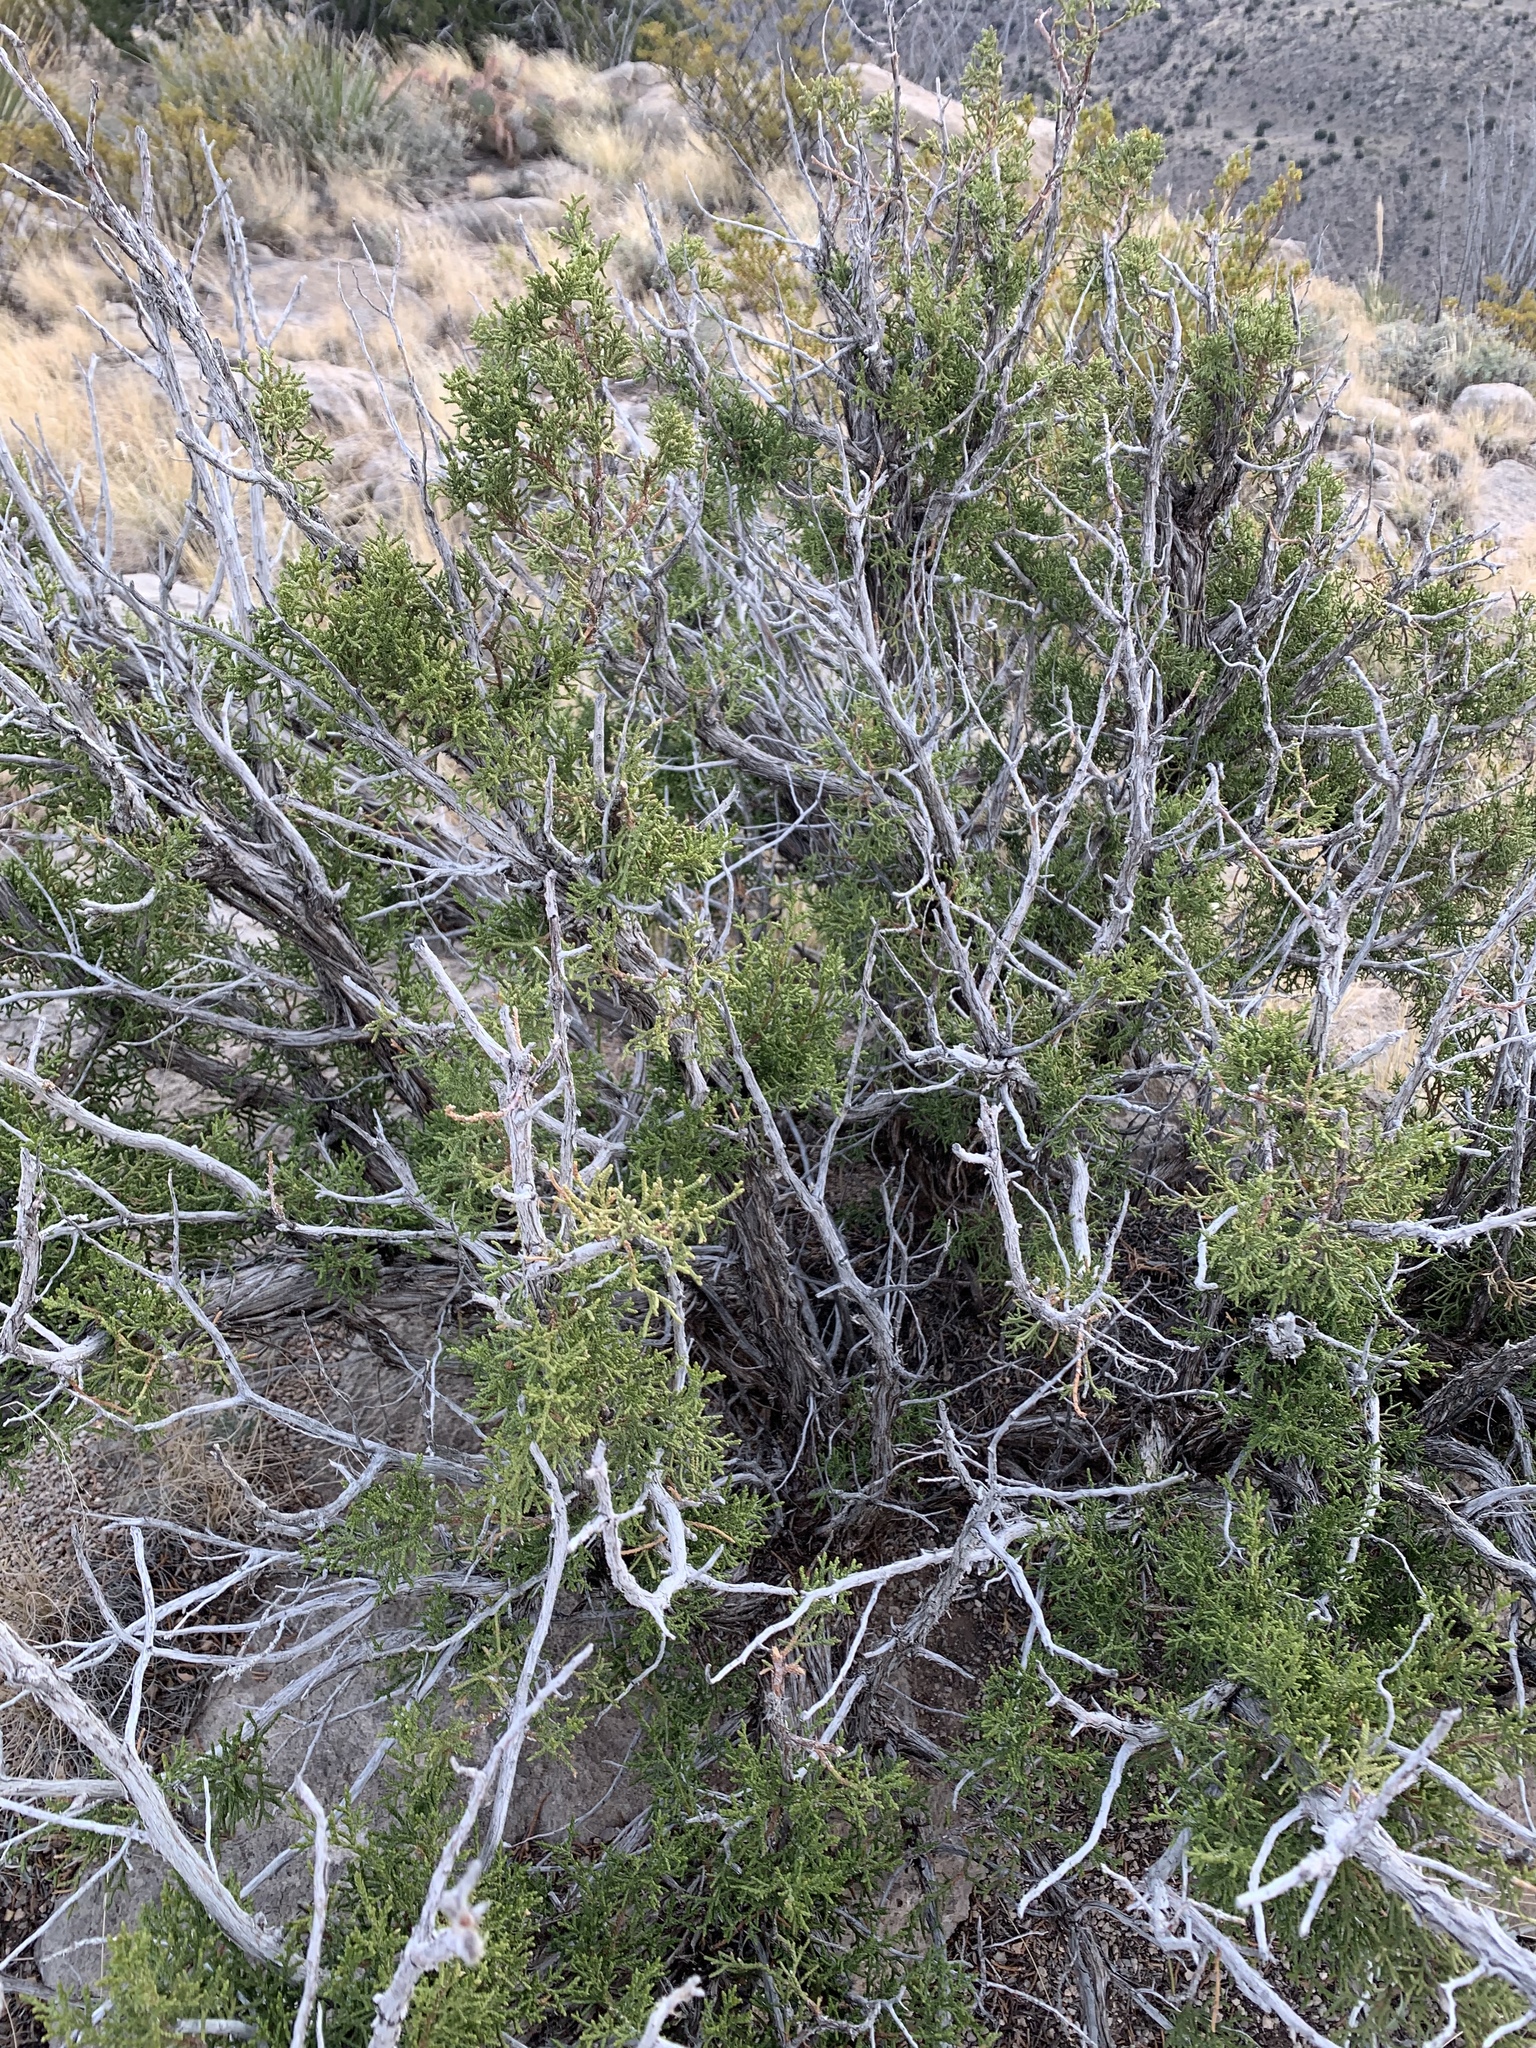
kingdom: Plantae
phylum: Tracheophyta
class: Pinopsida
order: Pinales
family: Cupressaceae
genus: Juniperus
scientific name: Juniperus monosperma
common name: One-seed juniper
